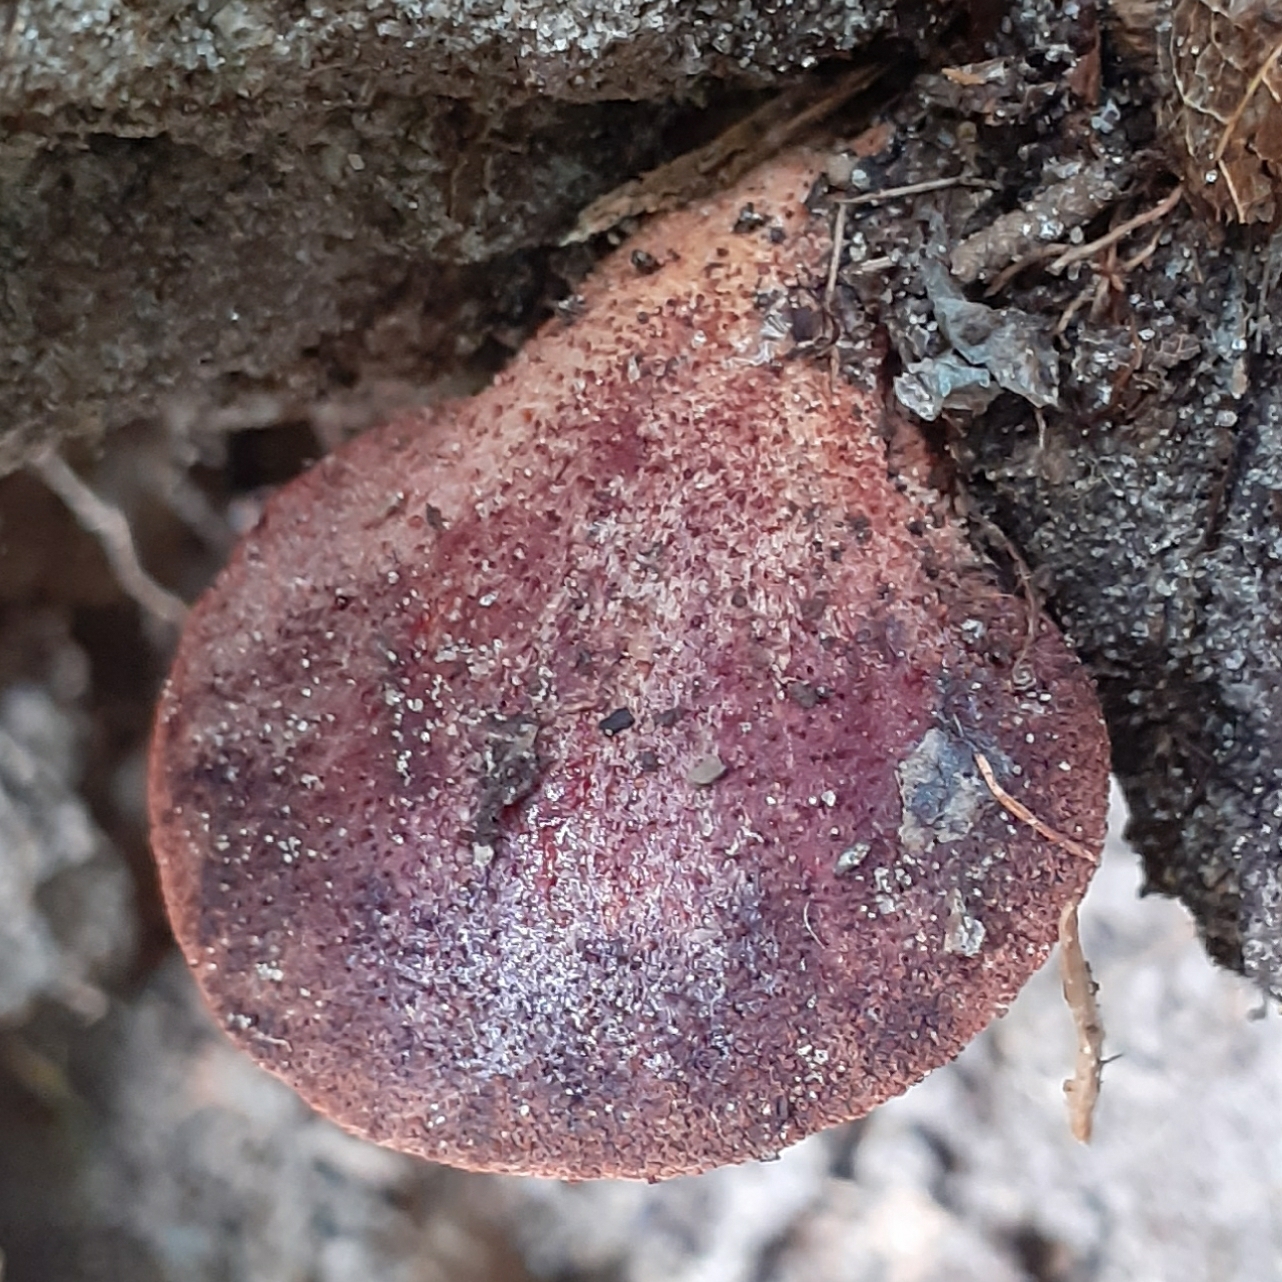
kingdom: Fungi
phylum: Basidiomycota
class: Agaricomycetes
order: Agaricales
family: Fistulinaceae
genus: Fistulina
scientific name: Fistulina hepatica
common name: Beef-steak fungus
